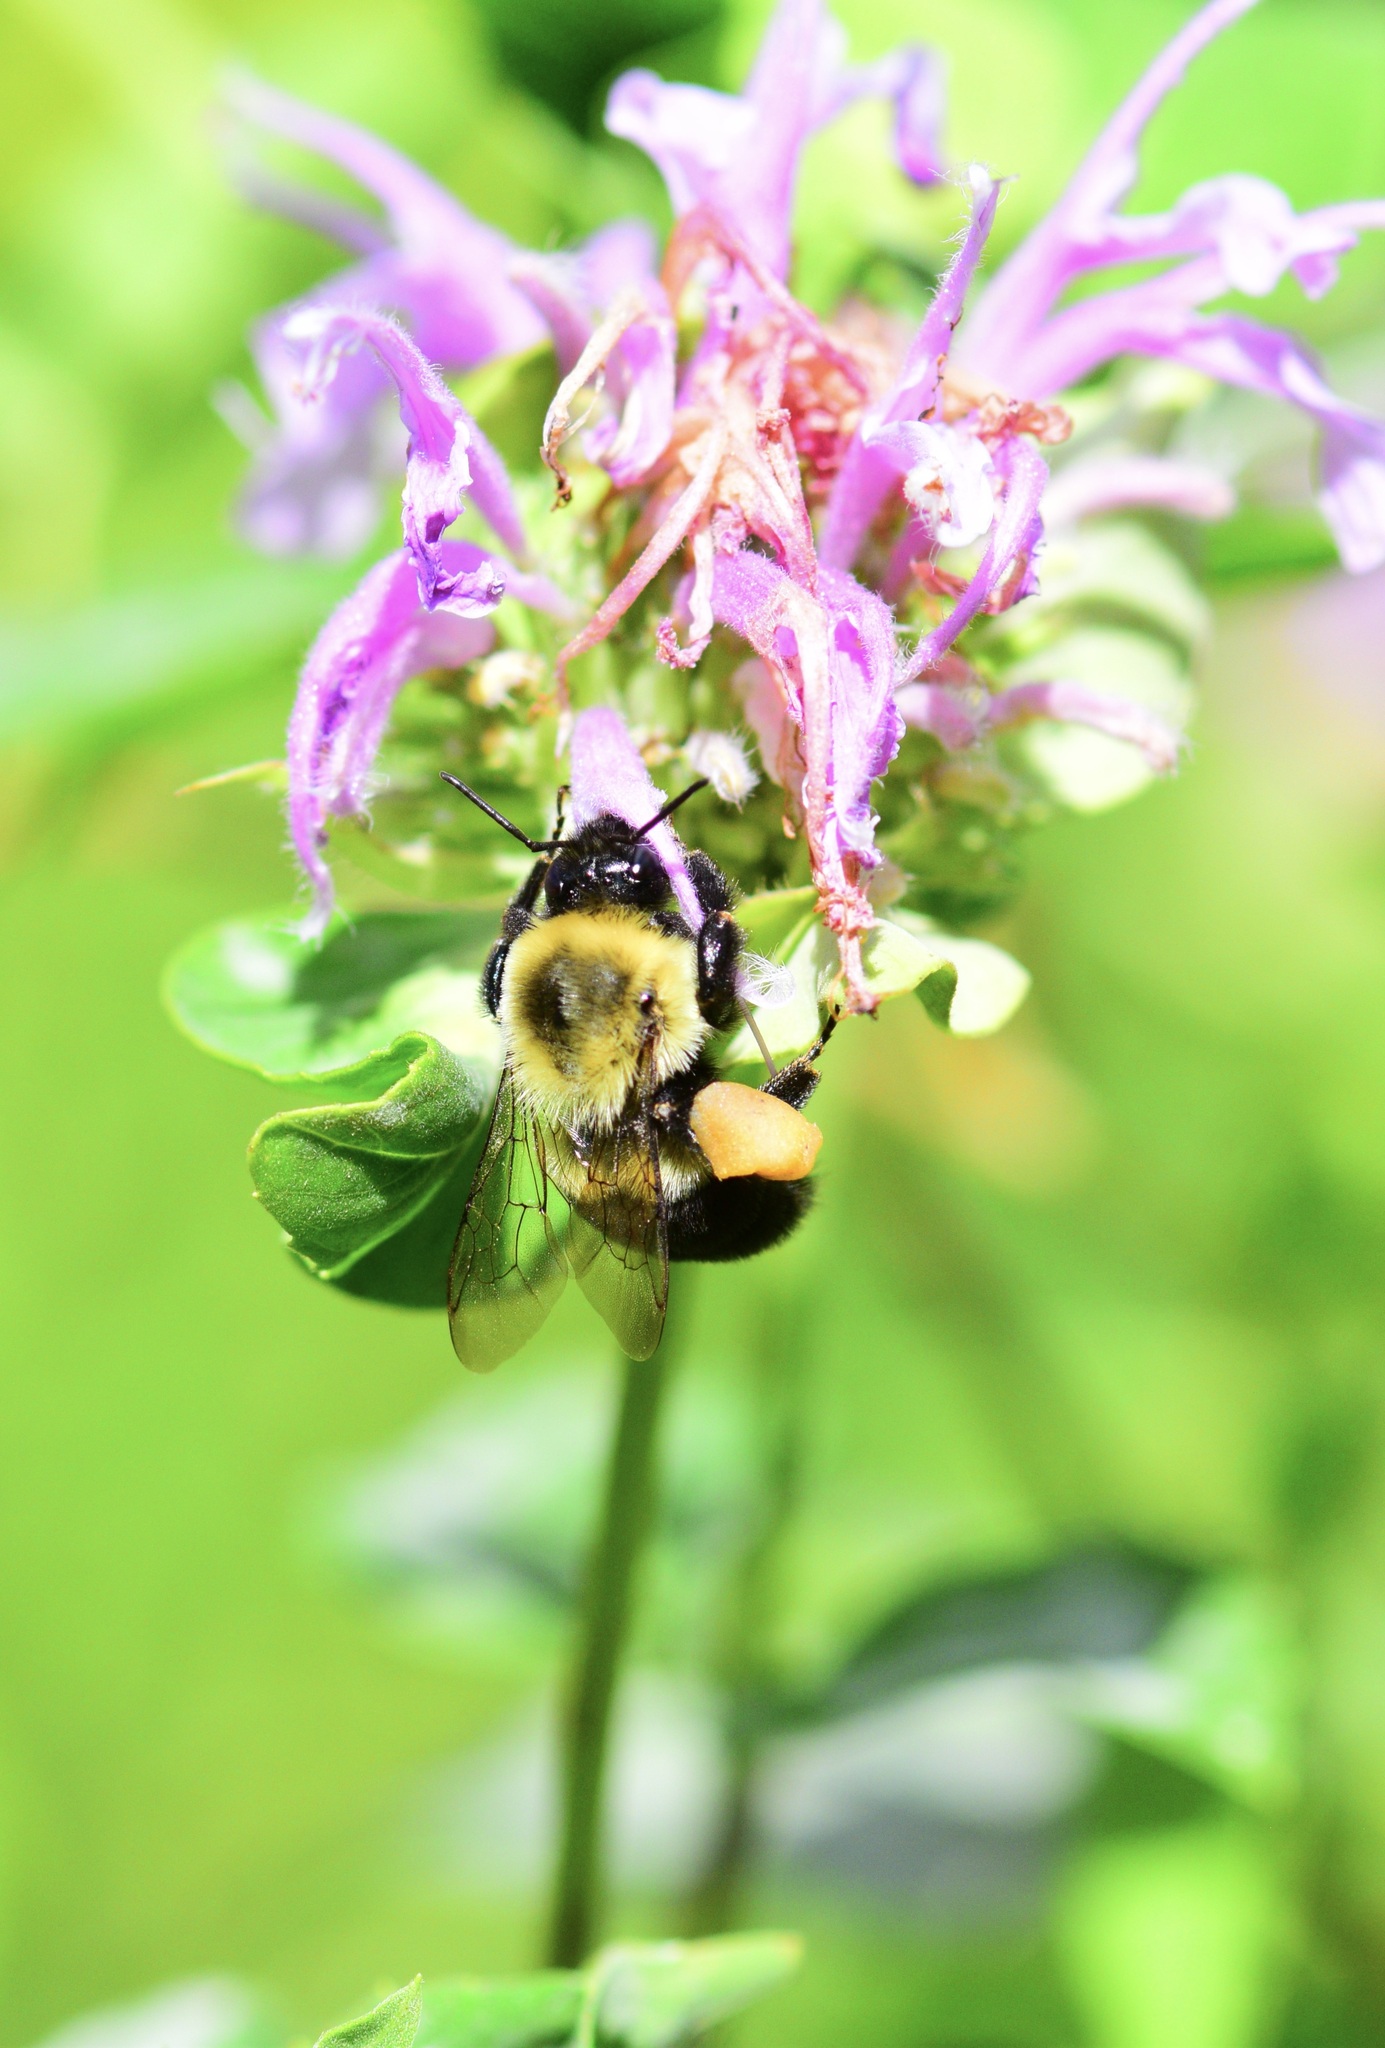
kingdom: Animalia
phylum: Arthropoda
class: Insecta
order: Hymenoptera
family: Apidae
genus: Bombus
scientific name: Bombus impatiens
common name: Common eastern bumble bee
